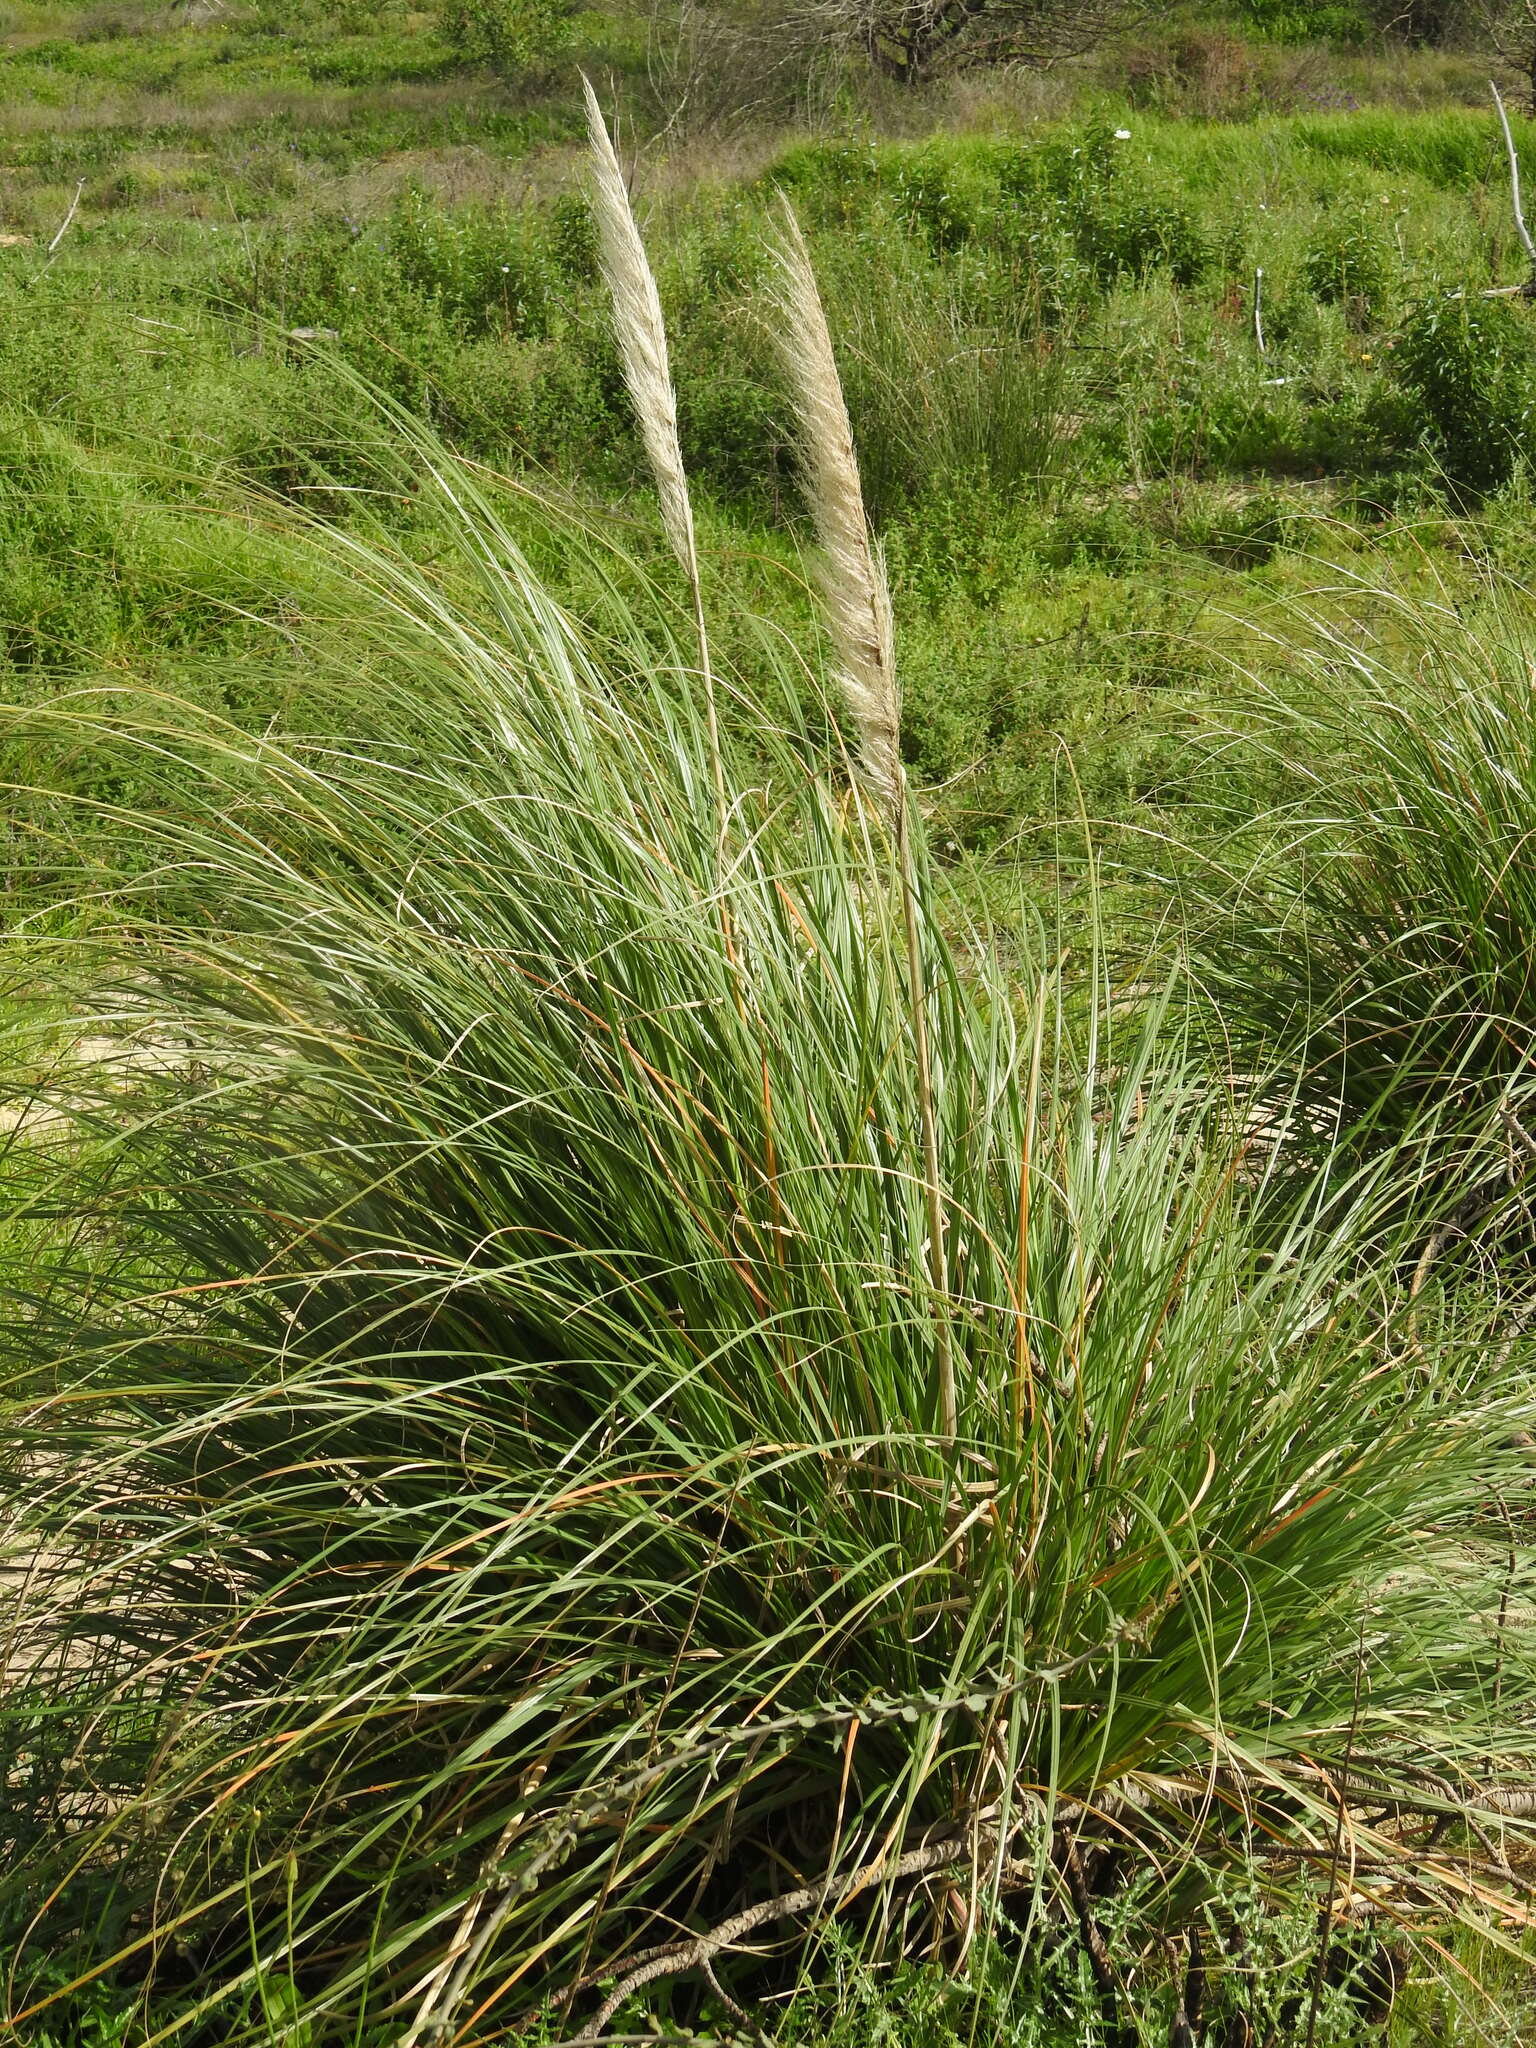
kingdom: Plantae
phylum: Tracheophyta
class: Liliopsida
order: Poales
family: Poaceae
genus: Cortaderia
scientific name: Cortaderia selloana
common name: Uruguayan pampas grass
